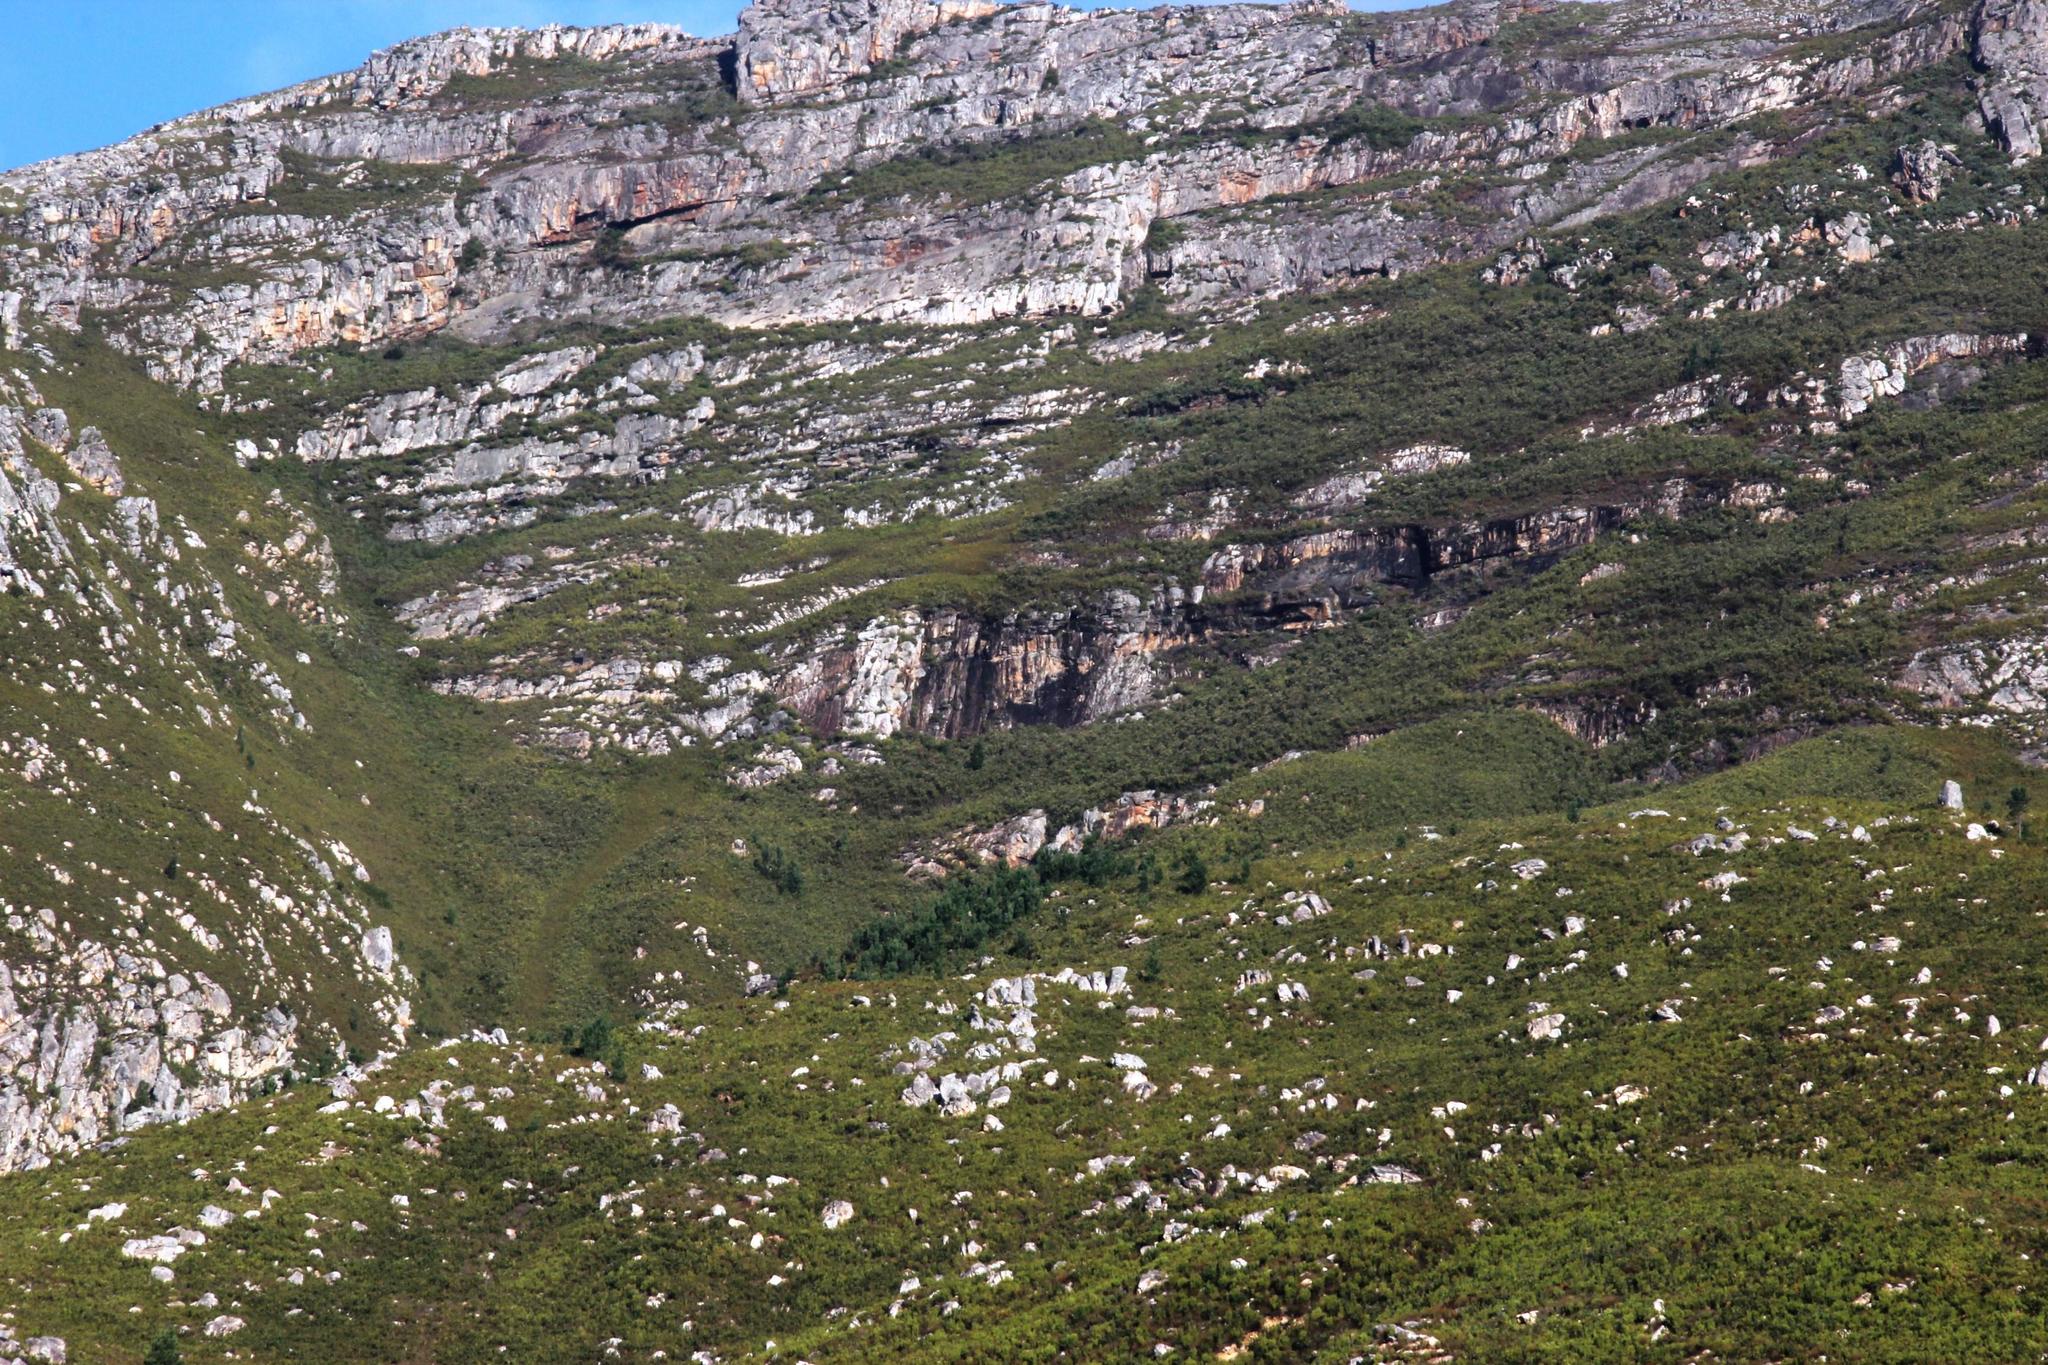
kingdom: Plantae
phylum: Tracheophyta
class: Pinopsida
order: Pinales
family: Pinaceae
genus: Pinus
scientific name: Pinus pinaster
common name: Maritime pine
